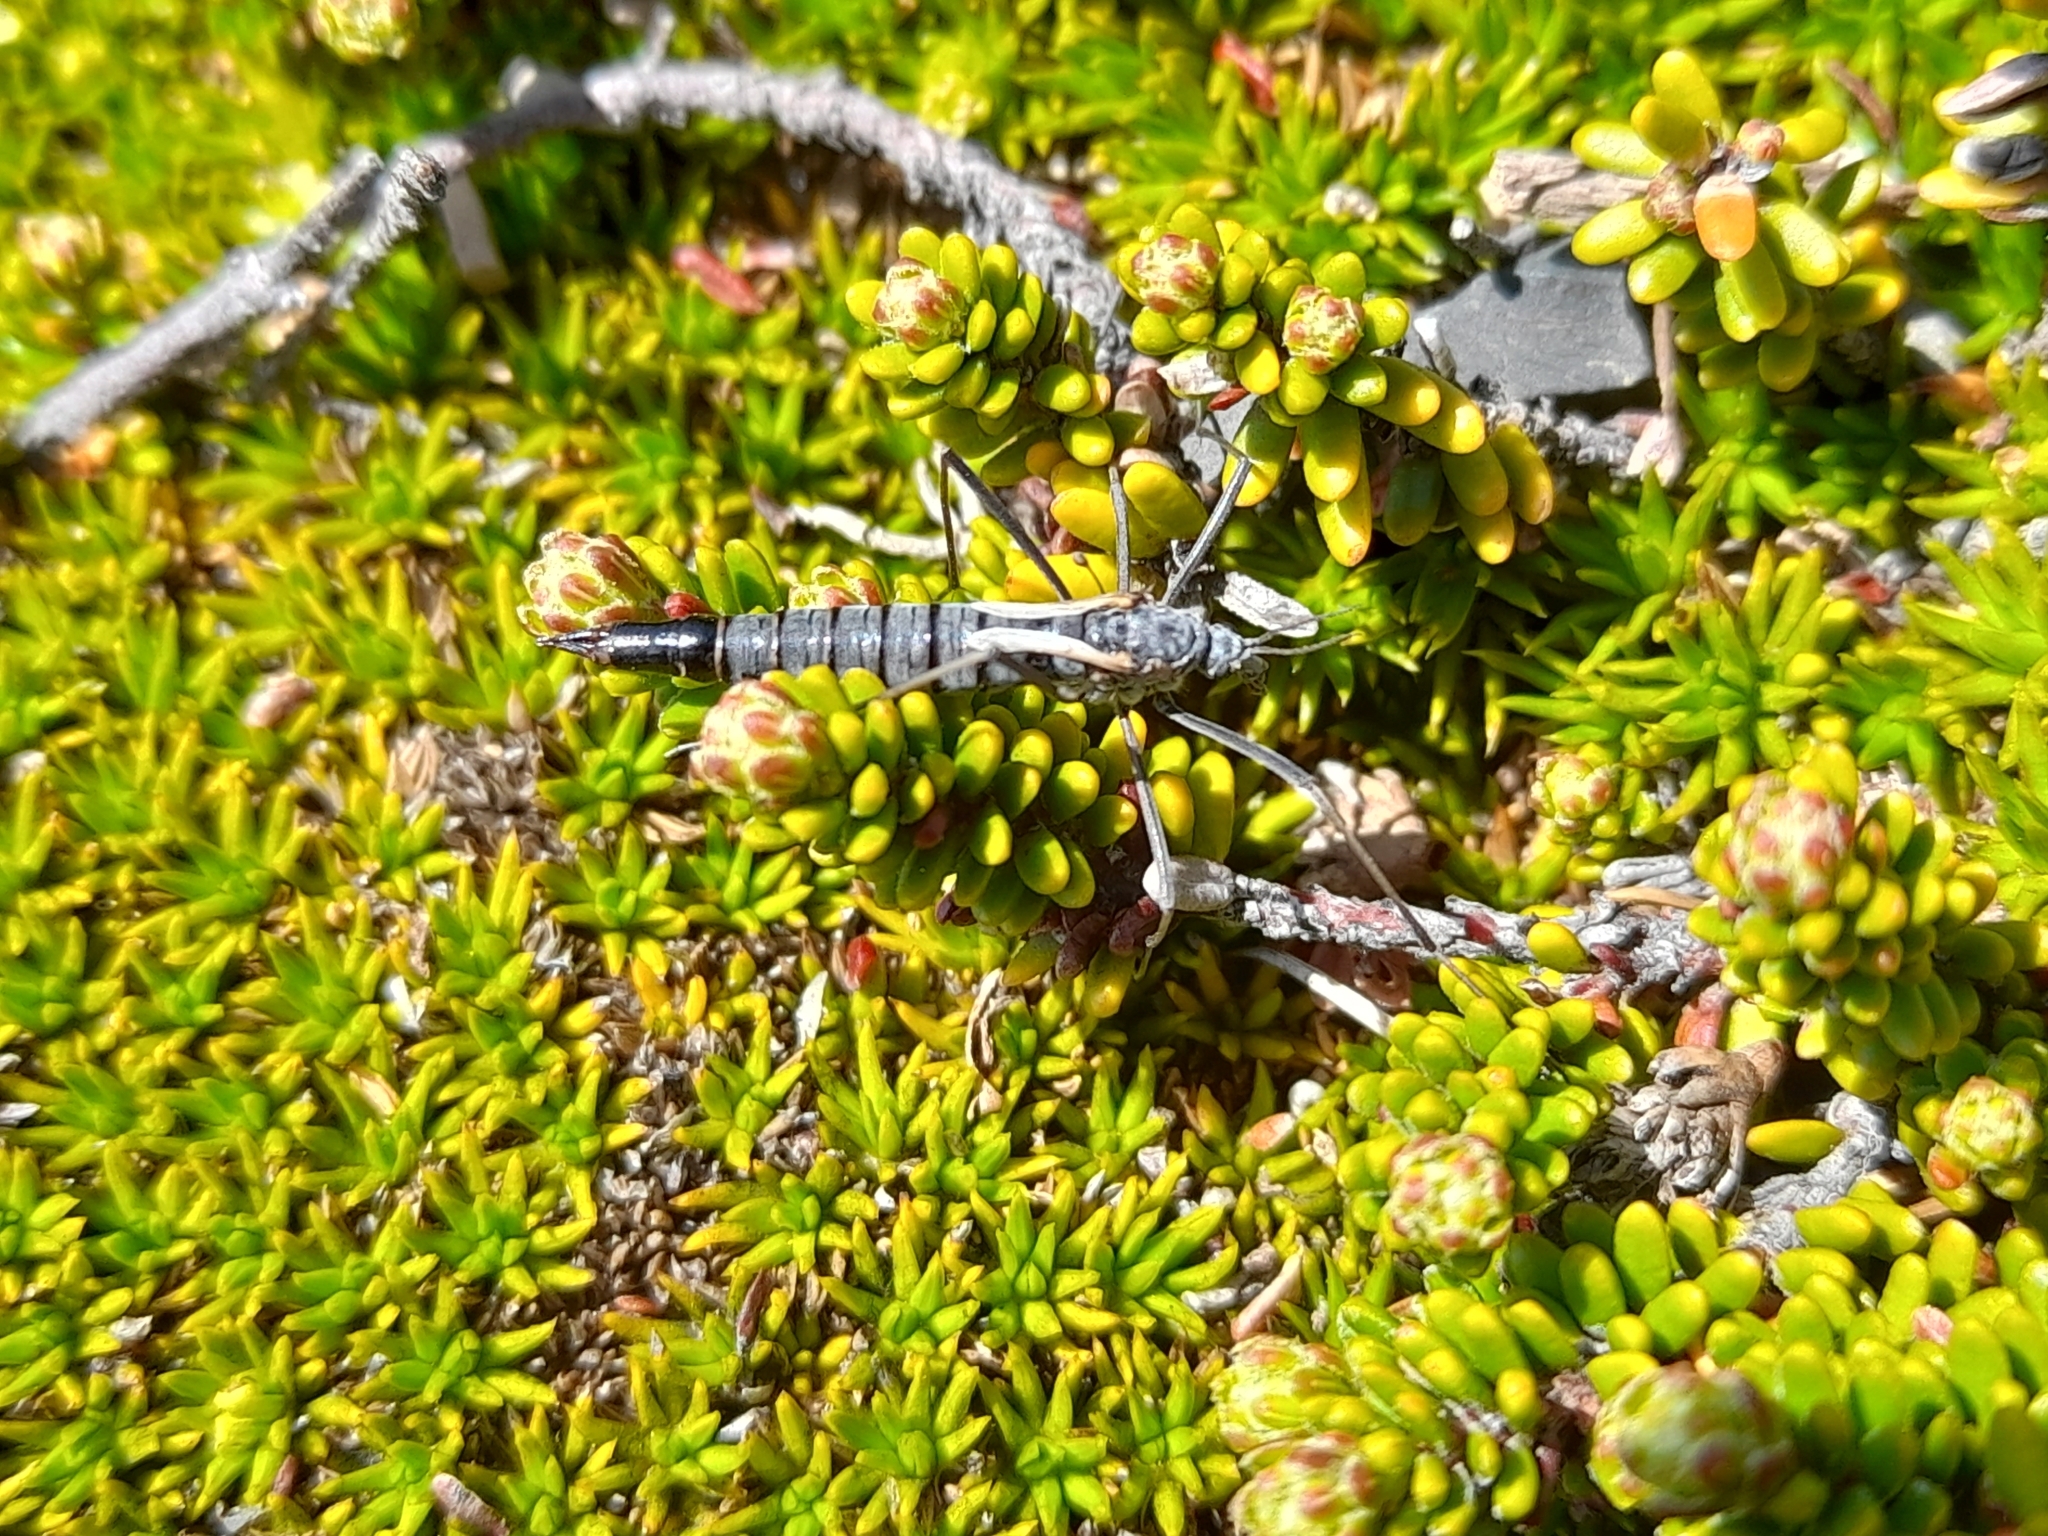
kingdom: Animalia
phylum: Arthropoda
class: Insecta
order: Diptera
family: Tipulidae
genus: Tipula
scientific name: Tipula kuscheli
